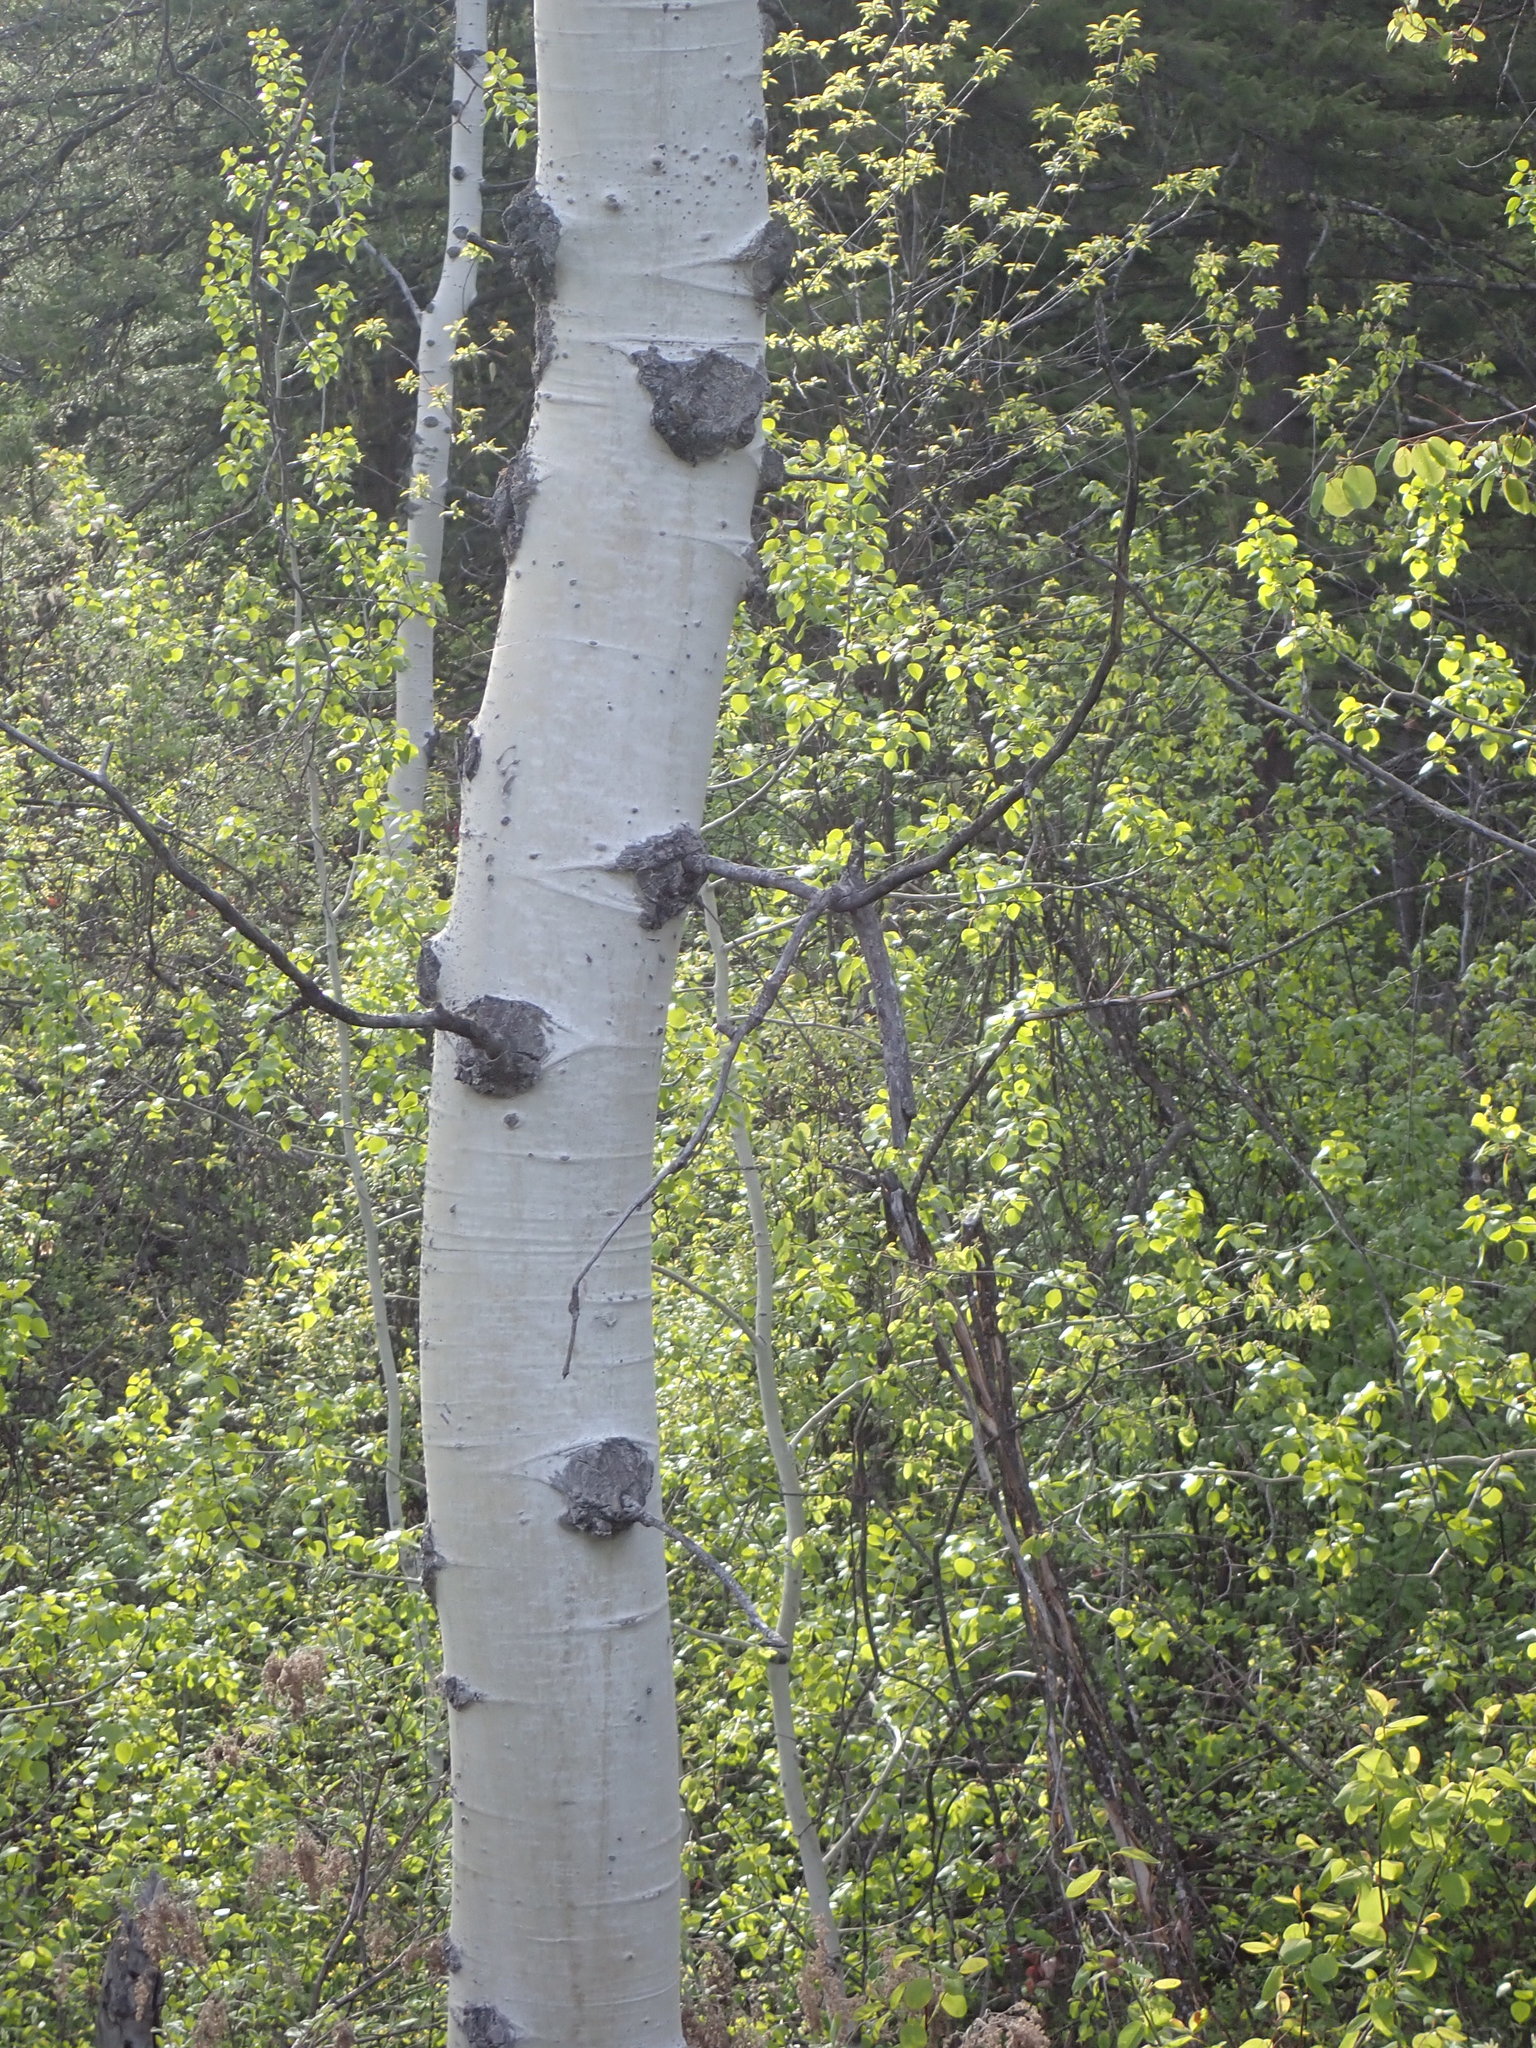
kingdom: Plantae
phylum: Tracheophyta
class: Magnoliopsida
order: Malpighiales
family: Salicaceae
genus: Populus
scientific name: Populus tremuloides
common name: Quaking aspen
